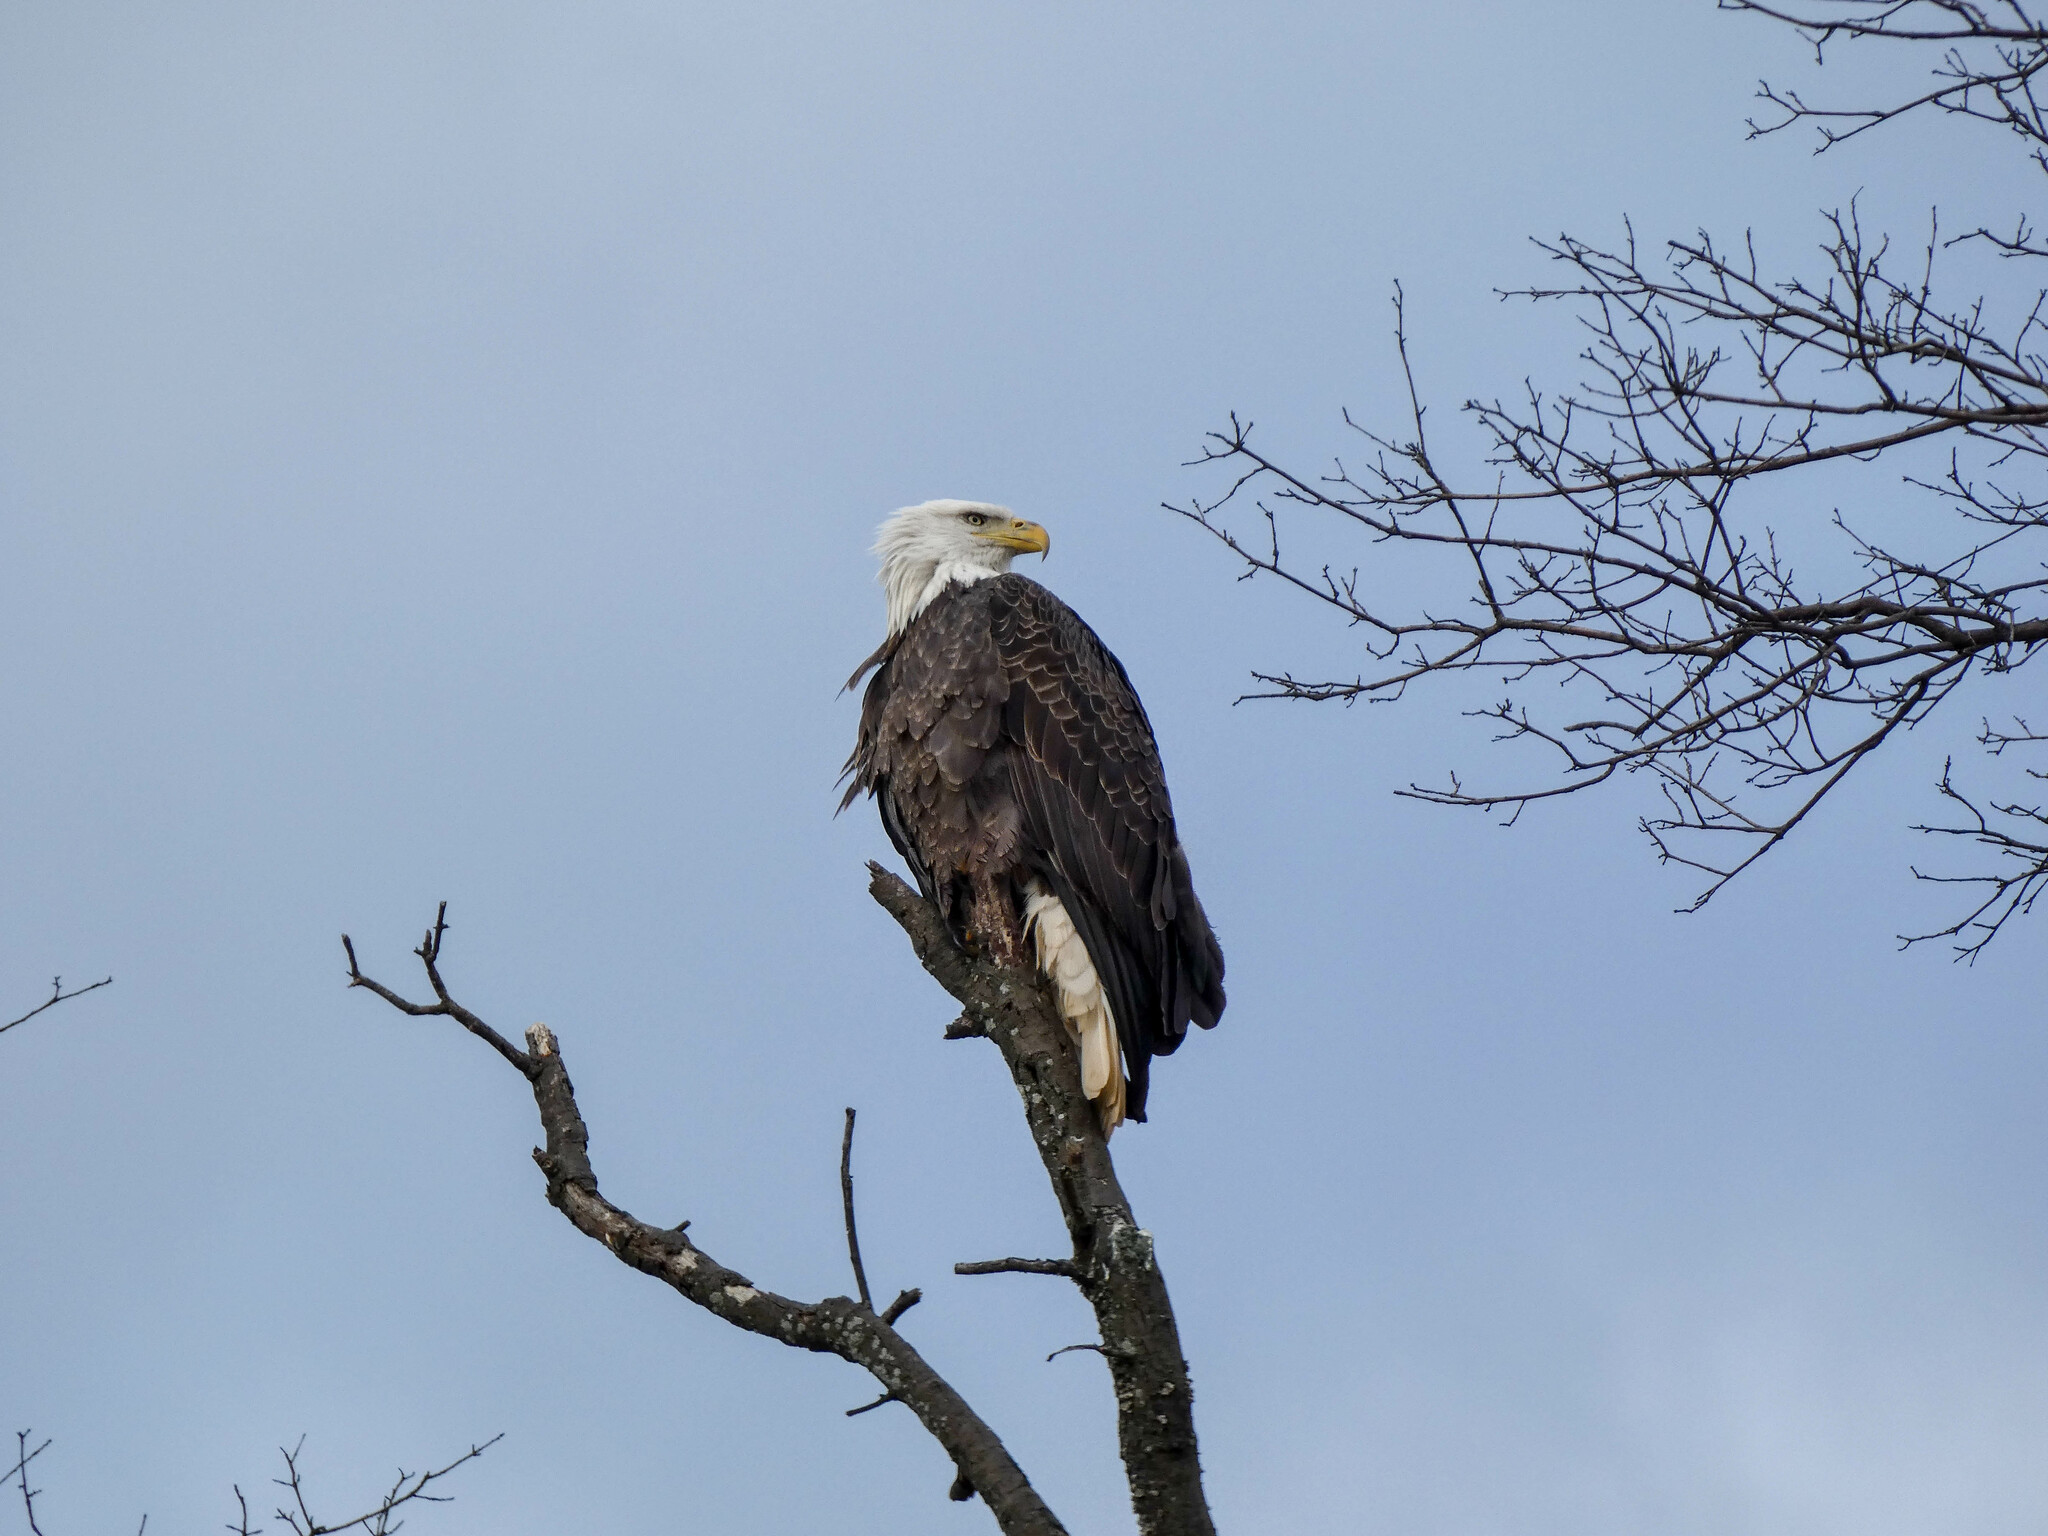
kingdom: Animalia
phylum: Chordata
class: Aves
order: Accipitriformes
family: Accipitridae
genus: Haliaeetus
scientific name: Haliaeetus leucocephalus
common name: Bald eagle
